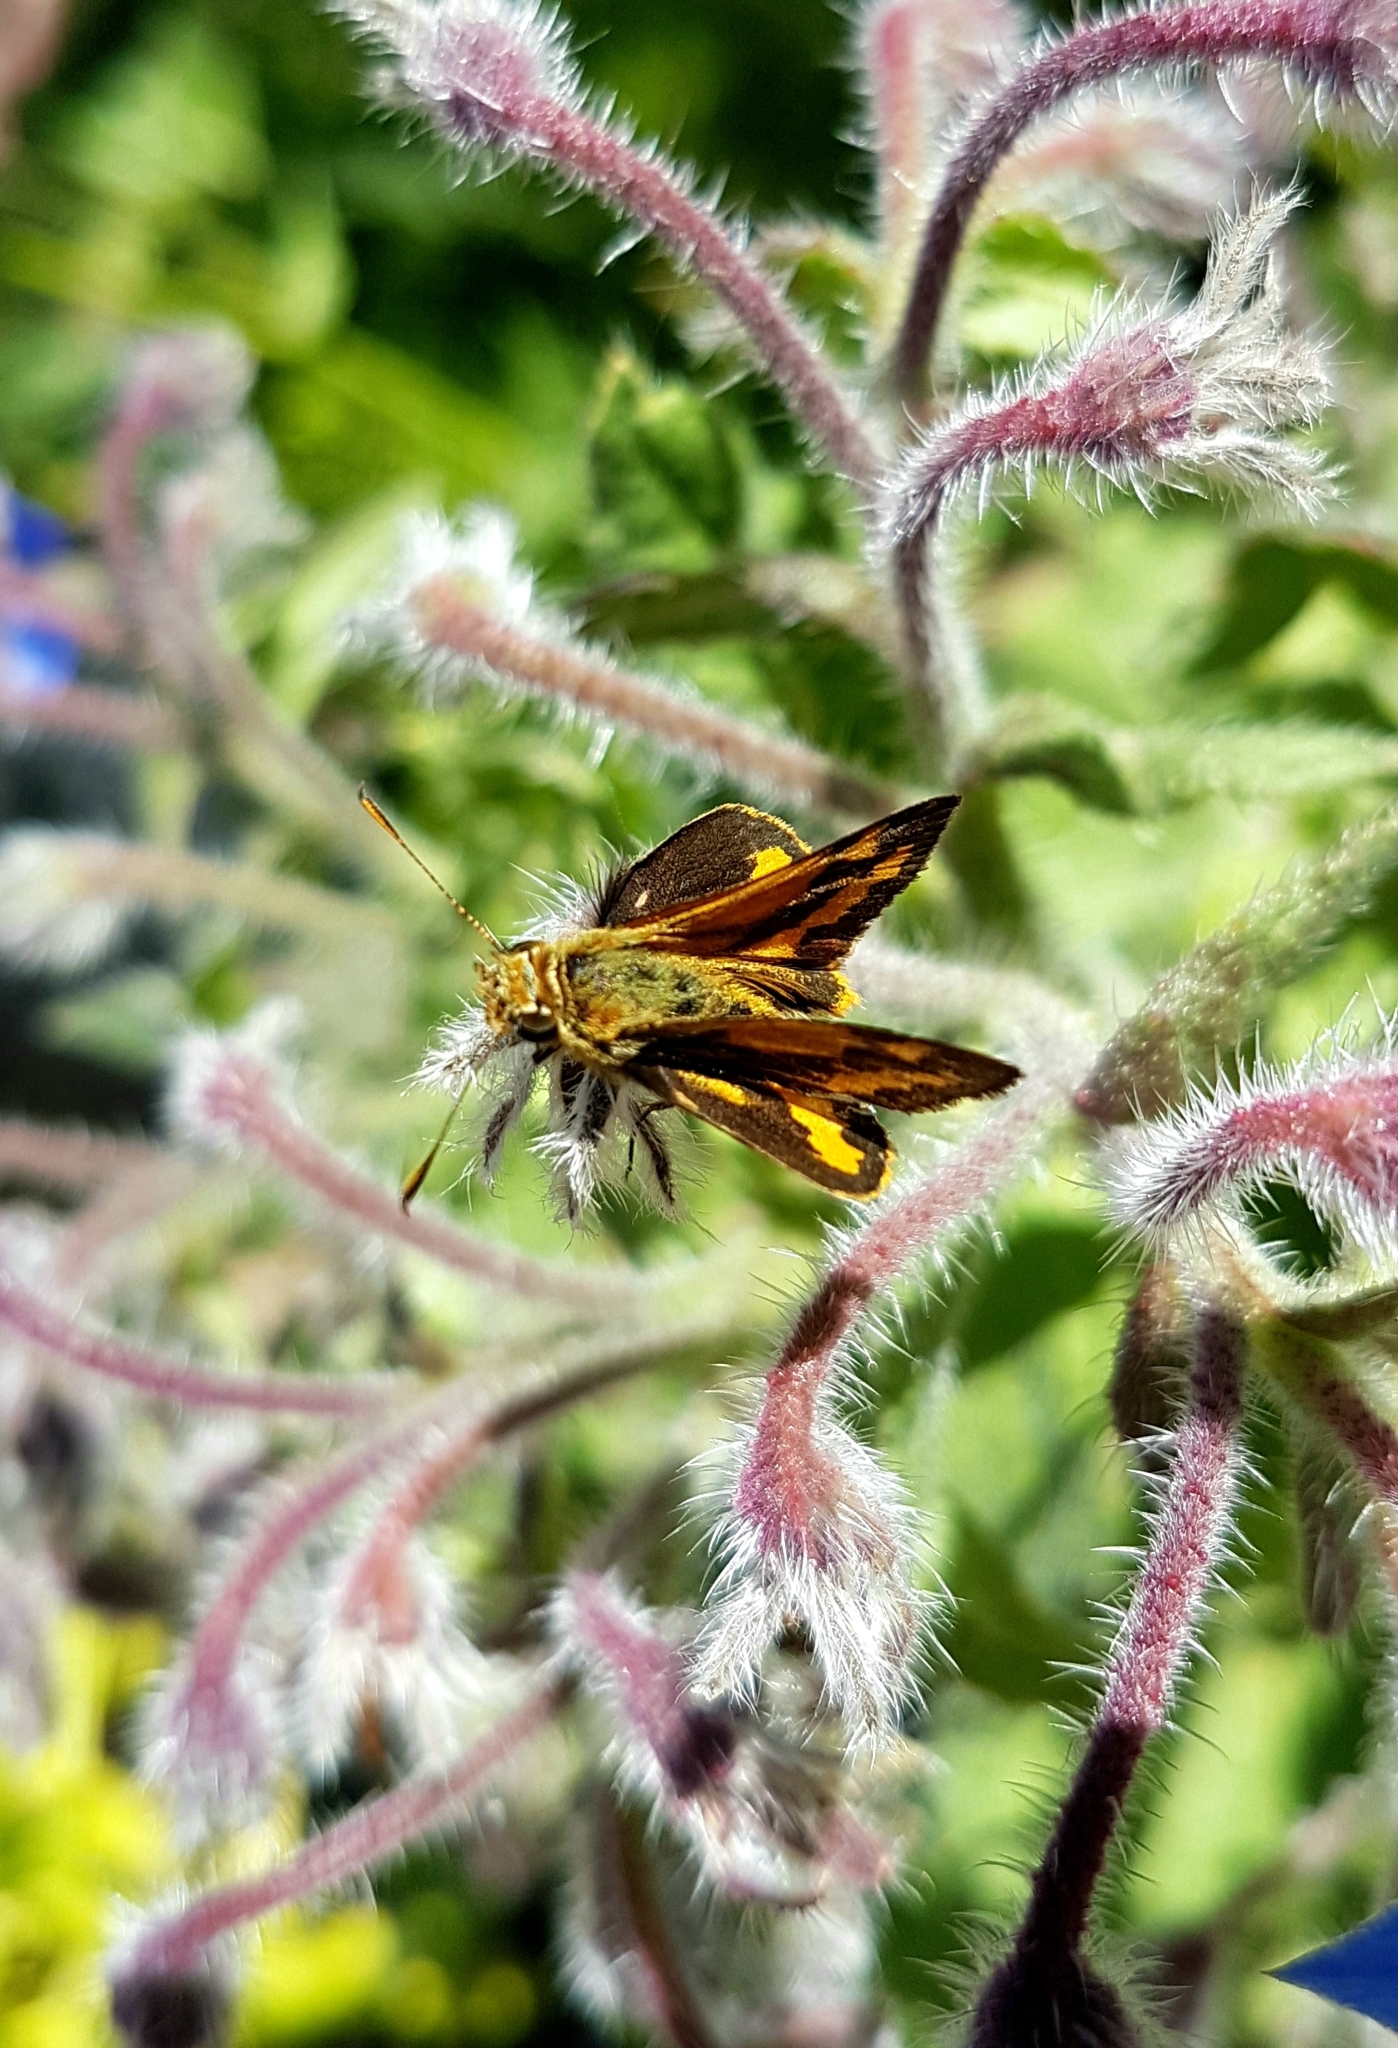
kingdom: Animalia
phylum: Arthropoda
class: Insecta
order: Lepidoptera
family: Hesperiidae
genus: Ocybadistes
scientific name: Ocybadistes walkeri
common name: Yellow-banded dart
